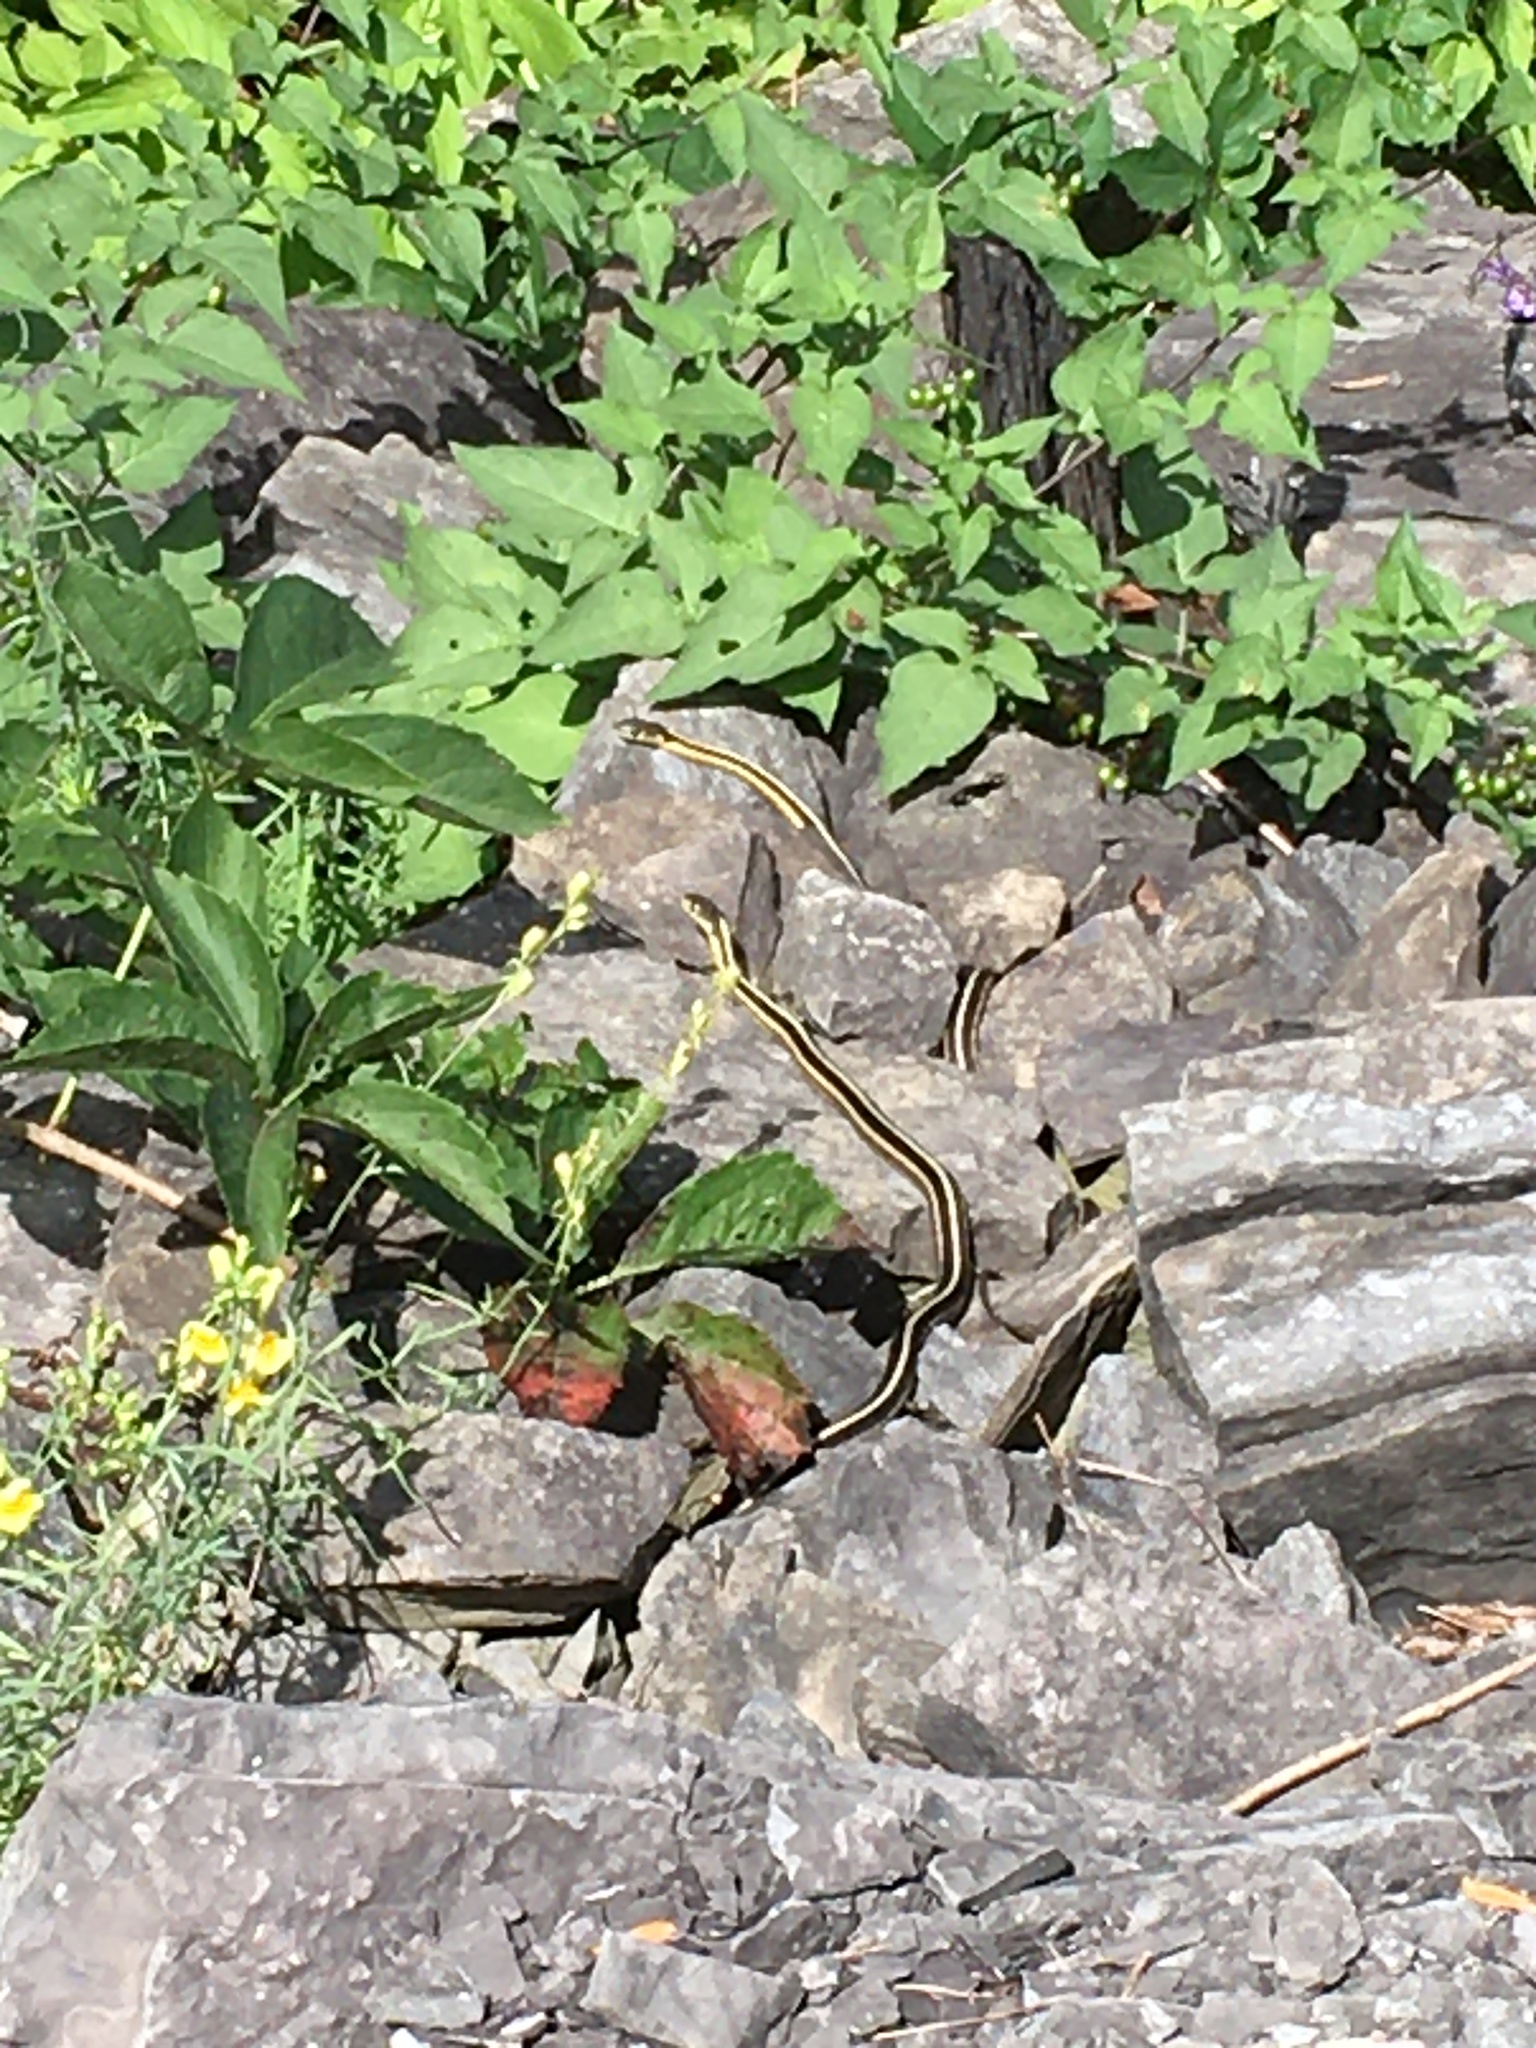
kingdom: Animalia
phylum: Chordata
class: Squamata
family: Colubridae
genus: Thamnophis
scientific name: Thamnophis sirtalis
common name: Common garter snake
